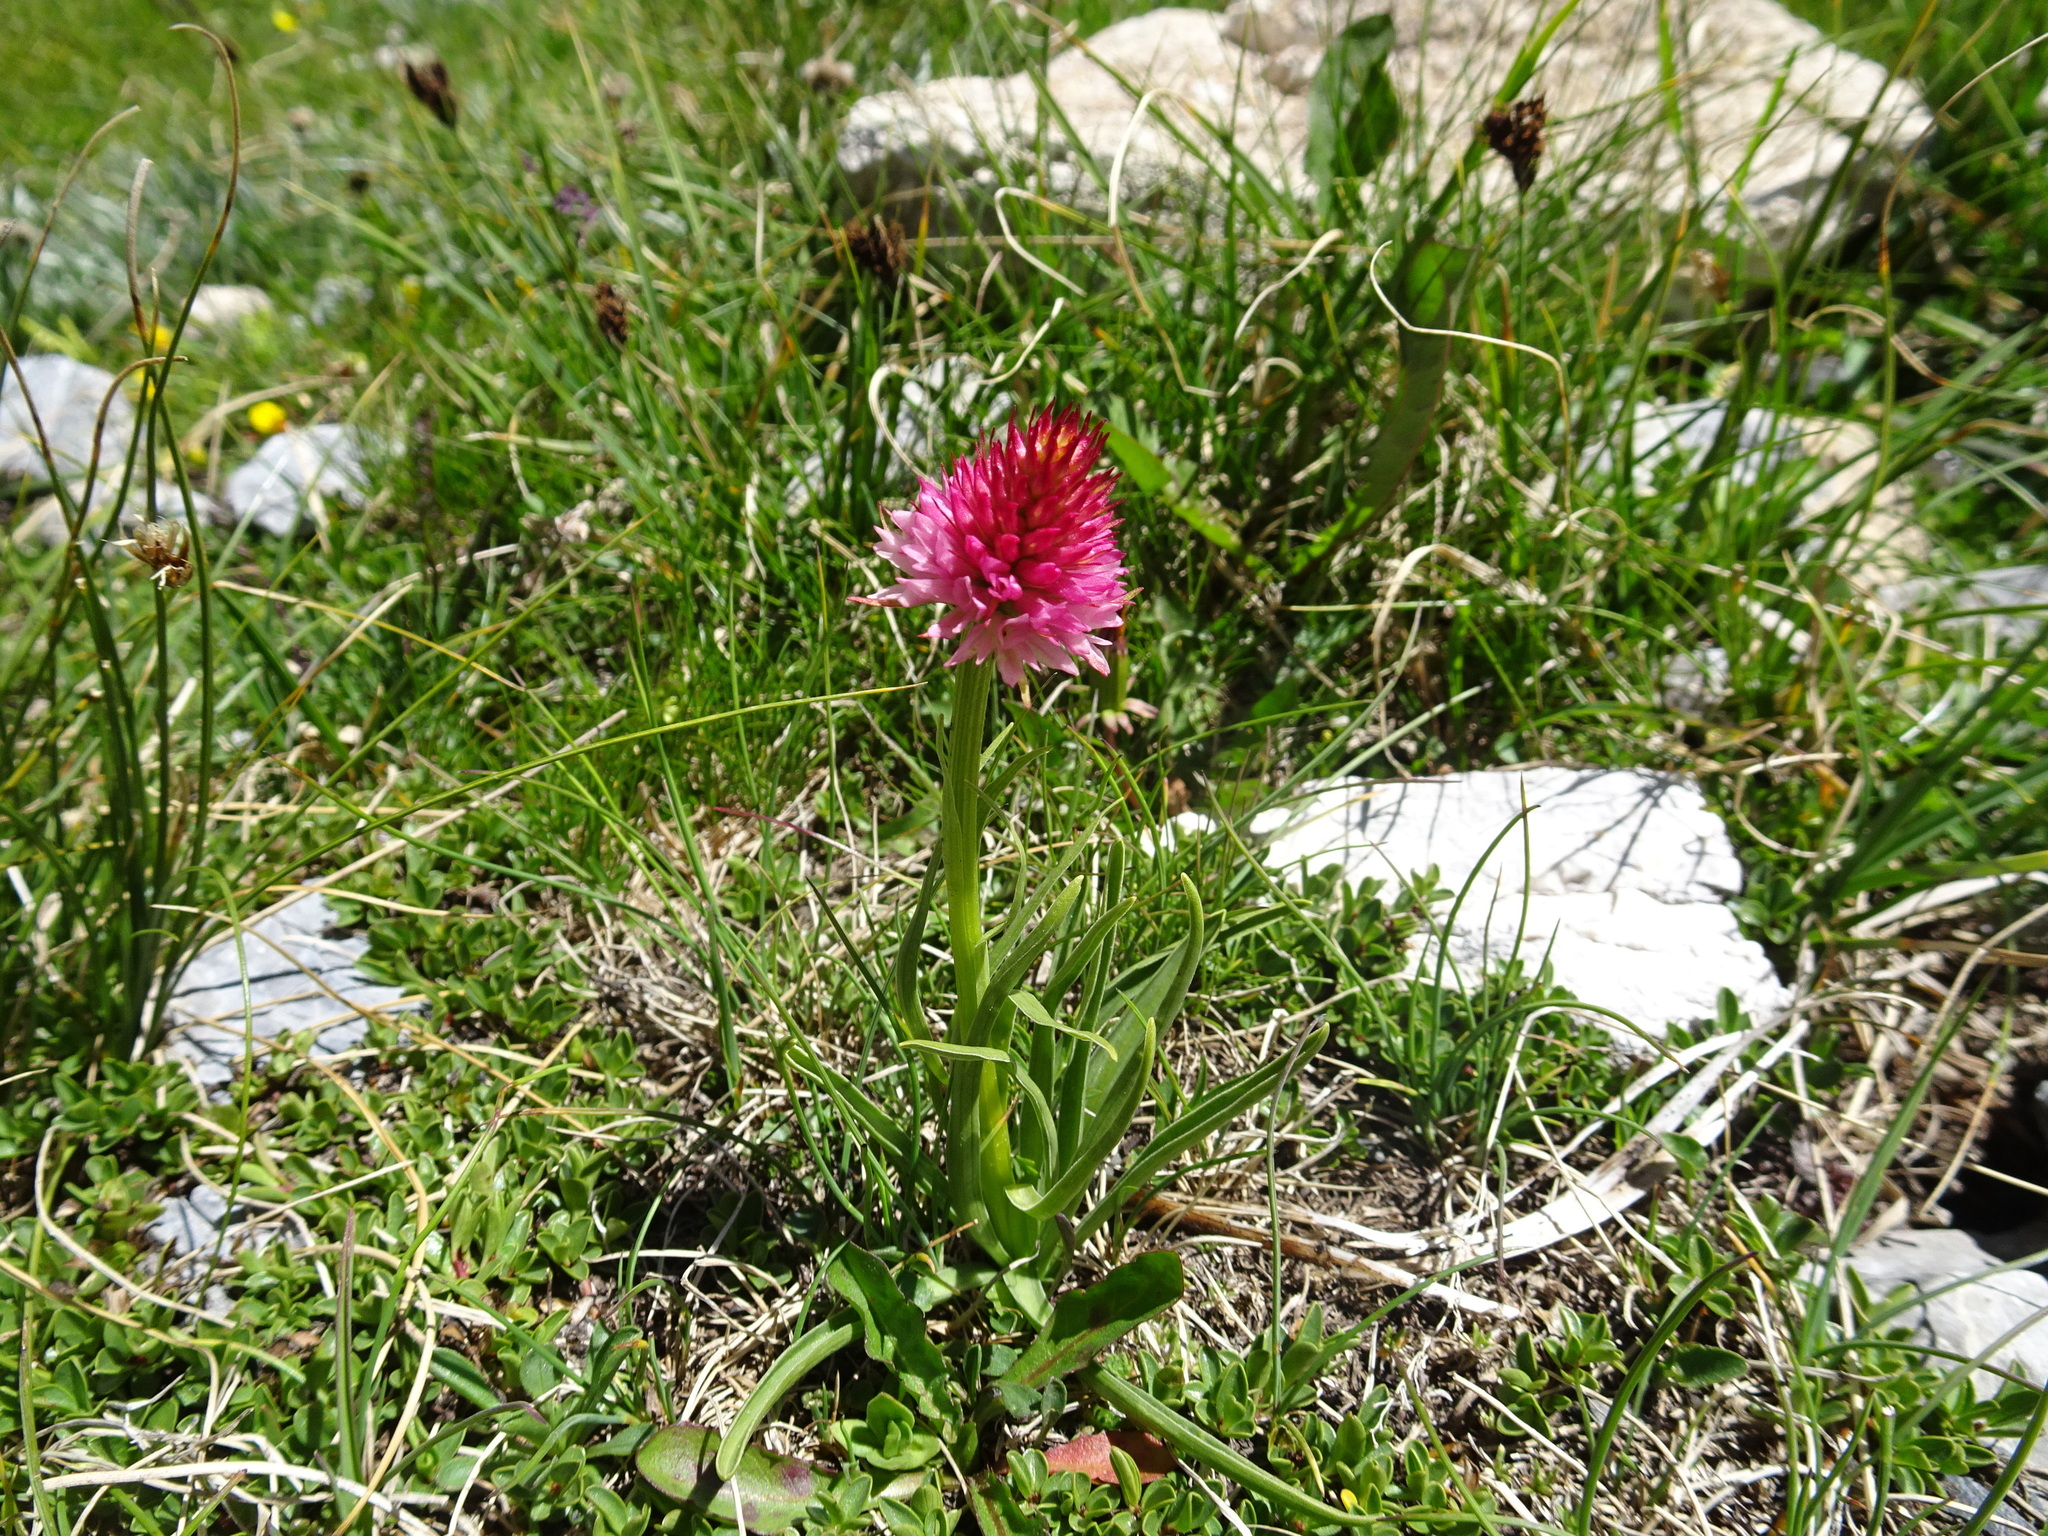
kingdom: Plantae
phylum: Tracheophyta
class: Liliopsida
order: Asparagales
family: Orchidaceae
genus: Gymnadenia
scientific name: Gymnadenia corneliana
